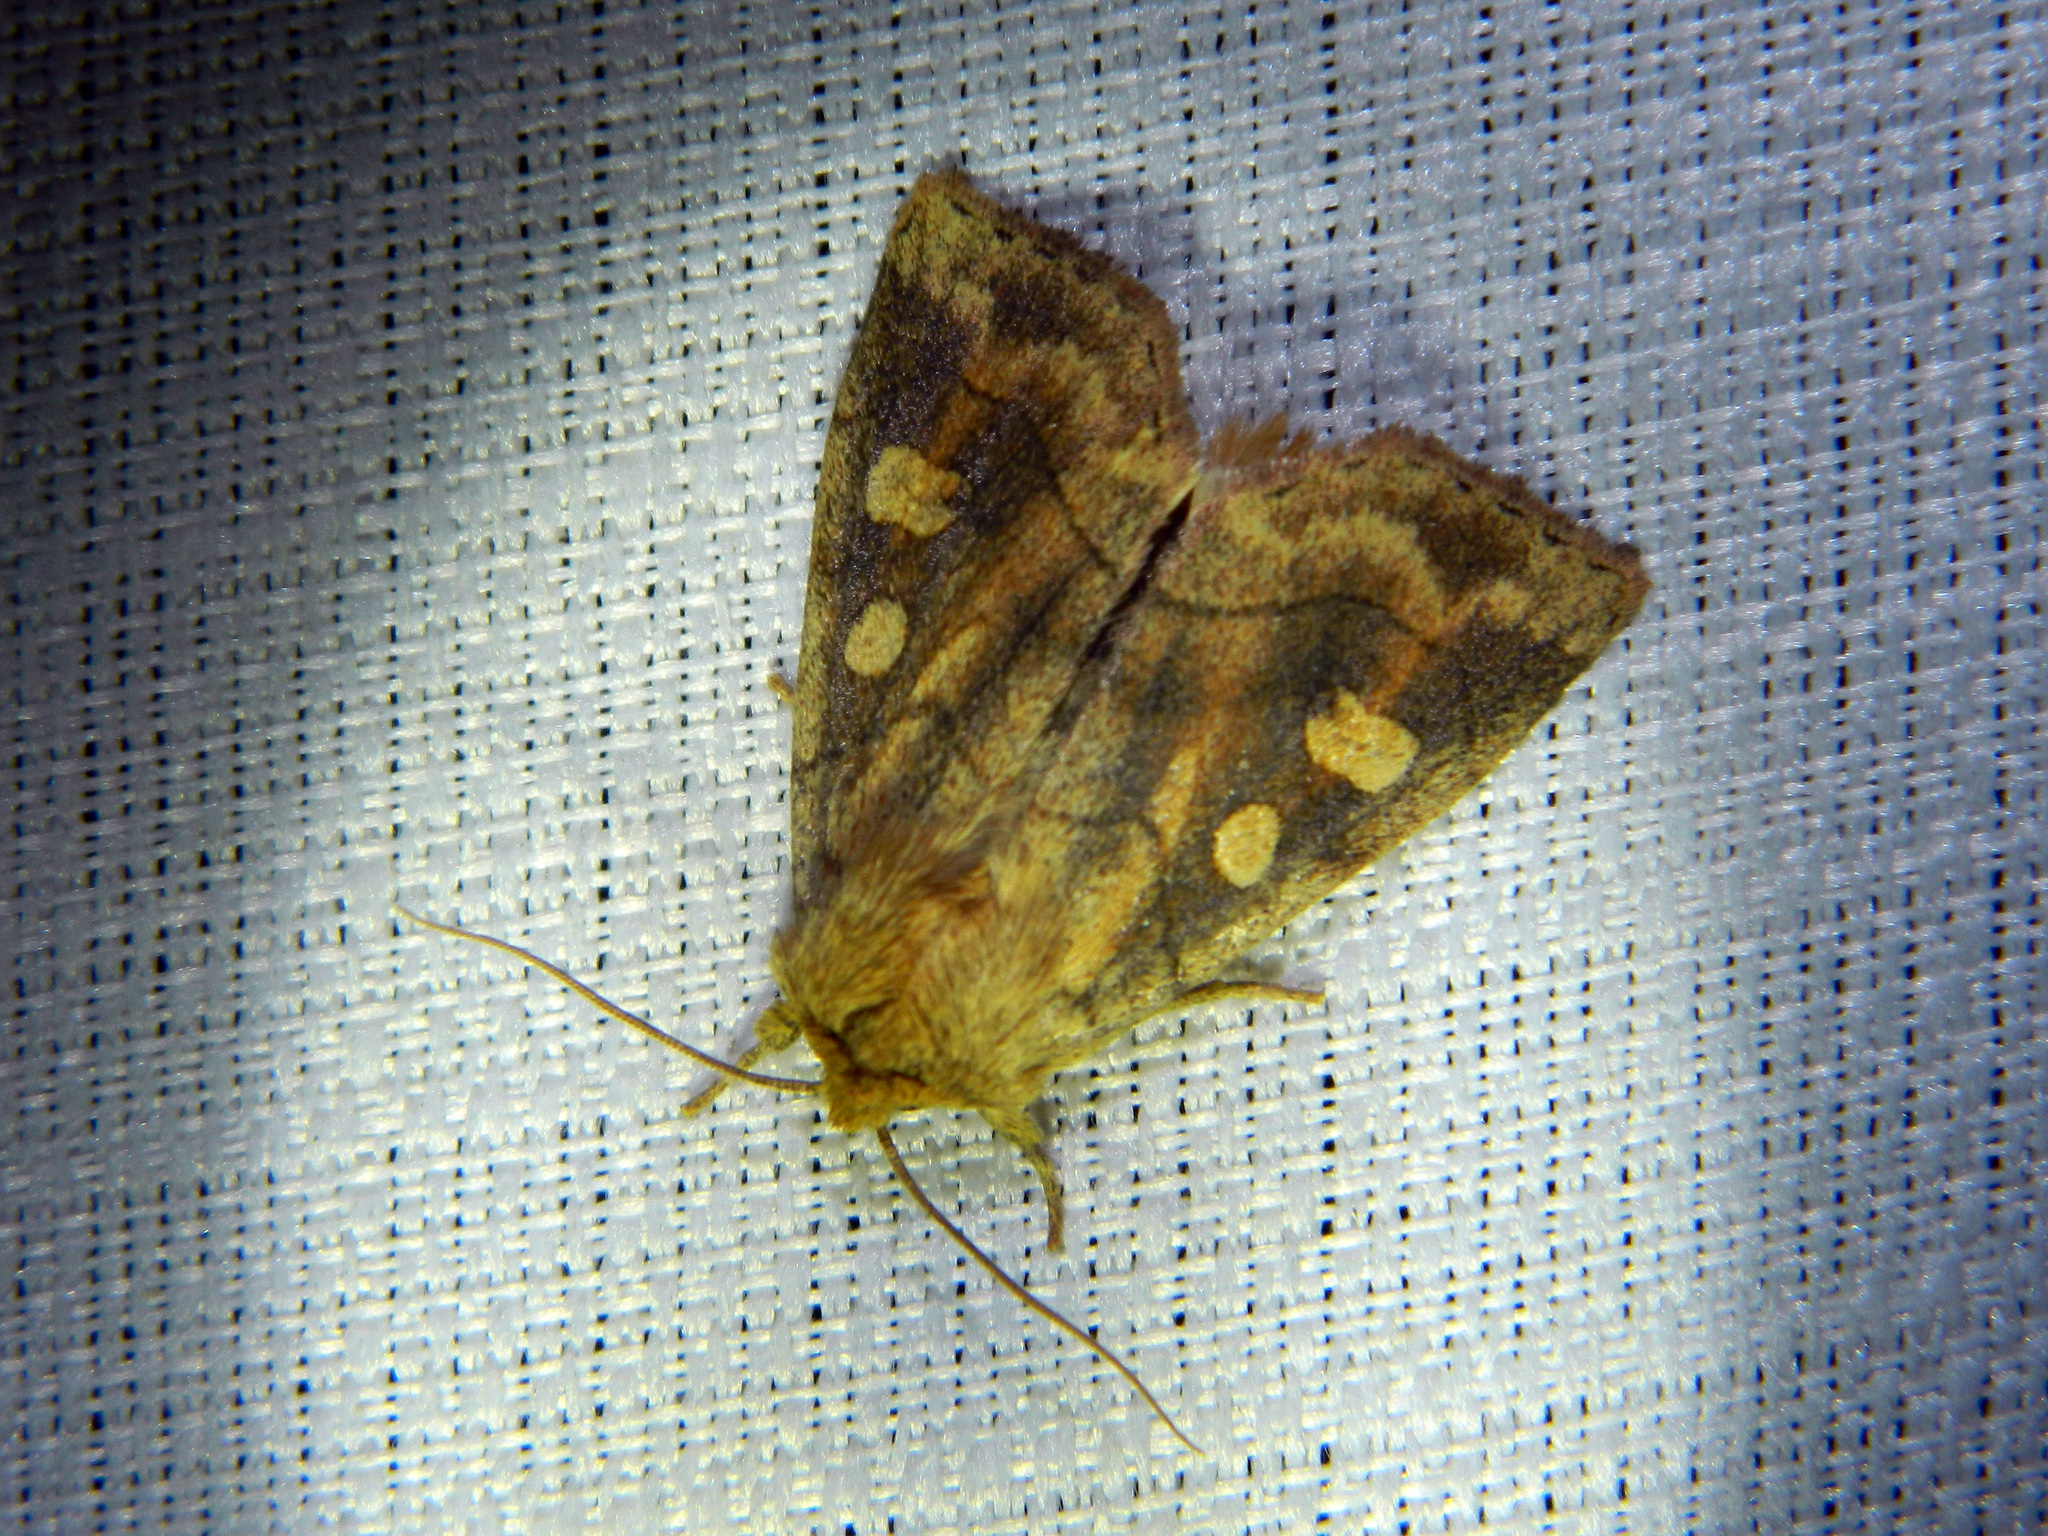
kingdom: Animalia
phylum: Arthropoda
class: Insecta
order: Lepidoptera
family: Noctuidae
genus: Enargia
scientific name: Enargia decolor
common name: Aspen twoleaf tier moth
